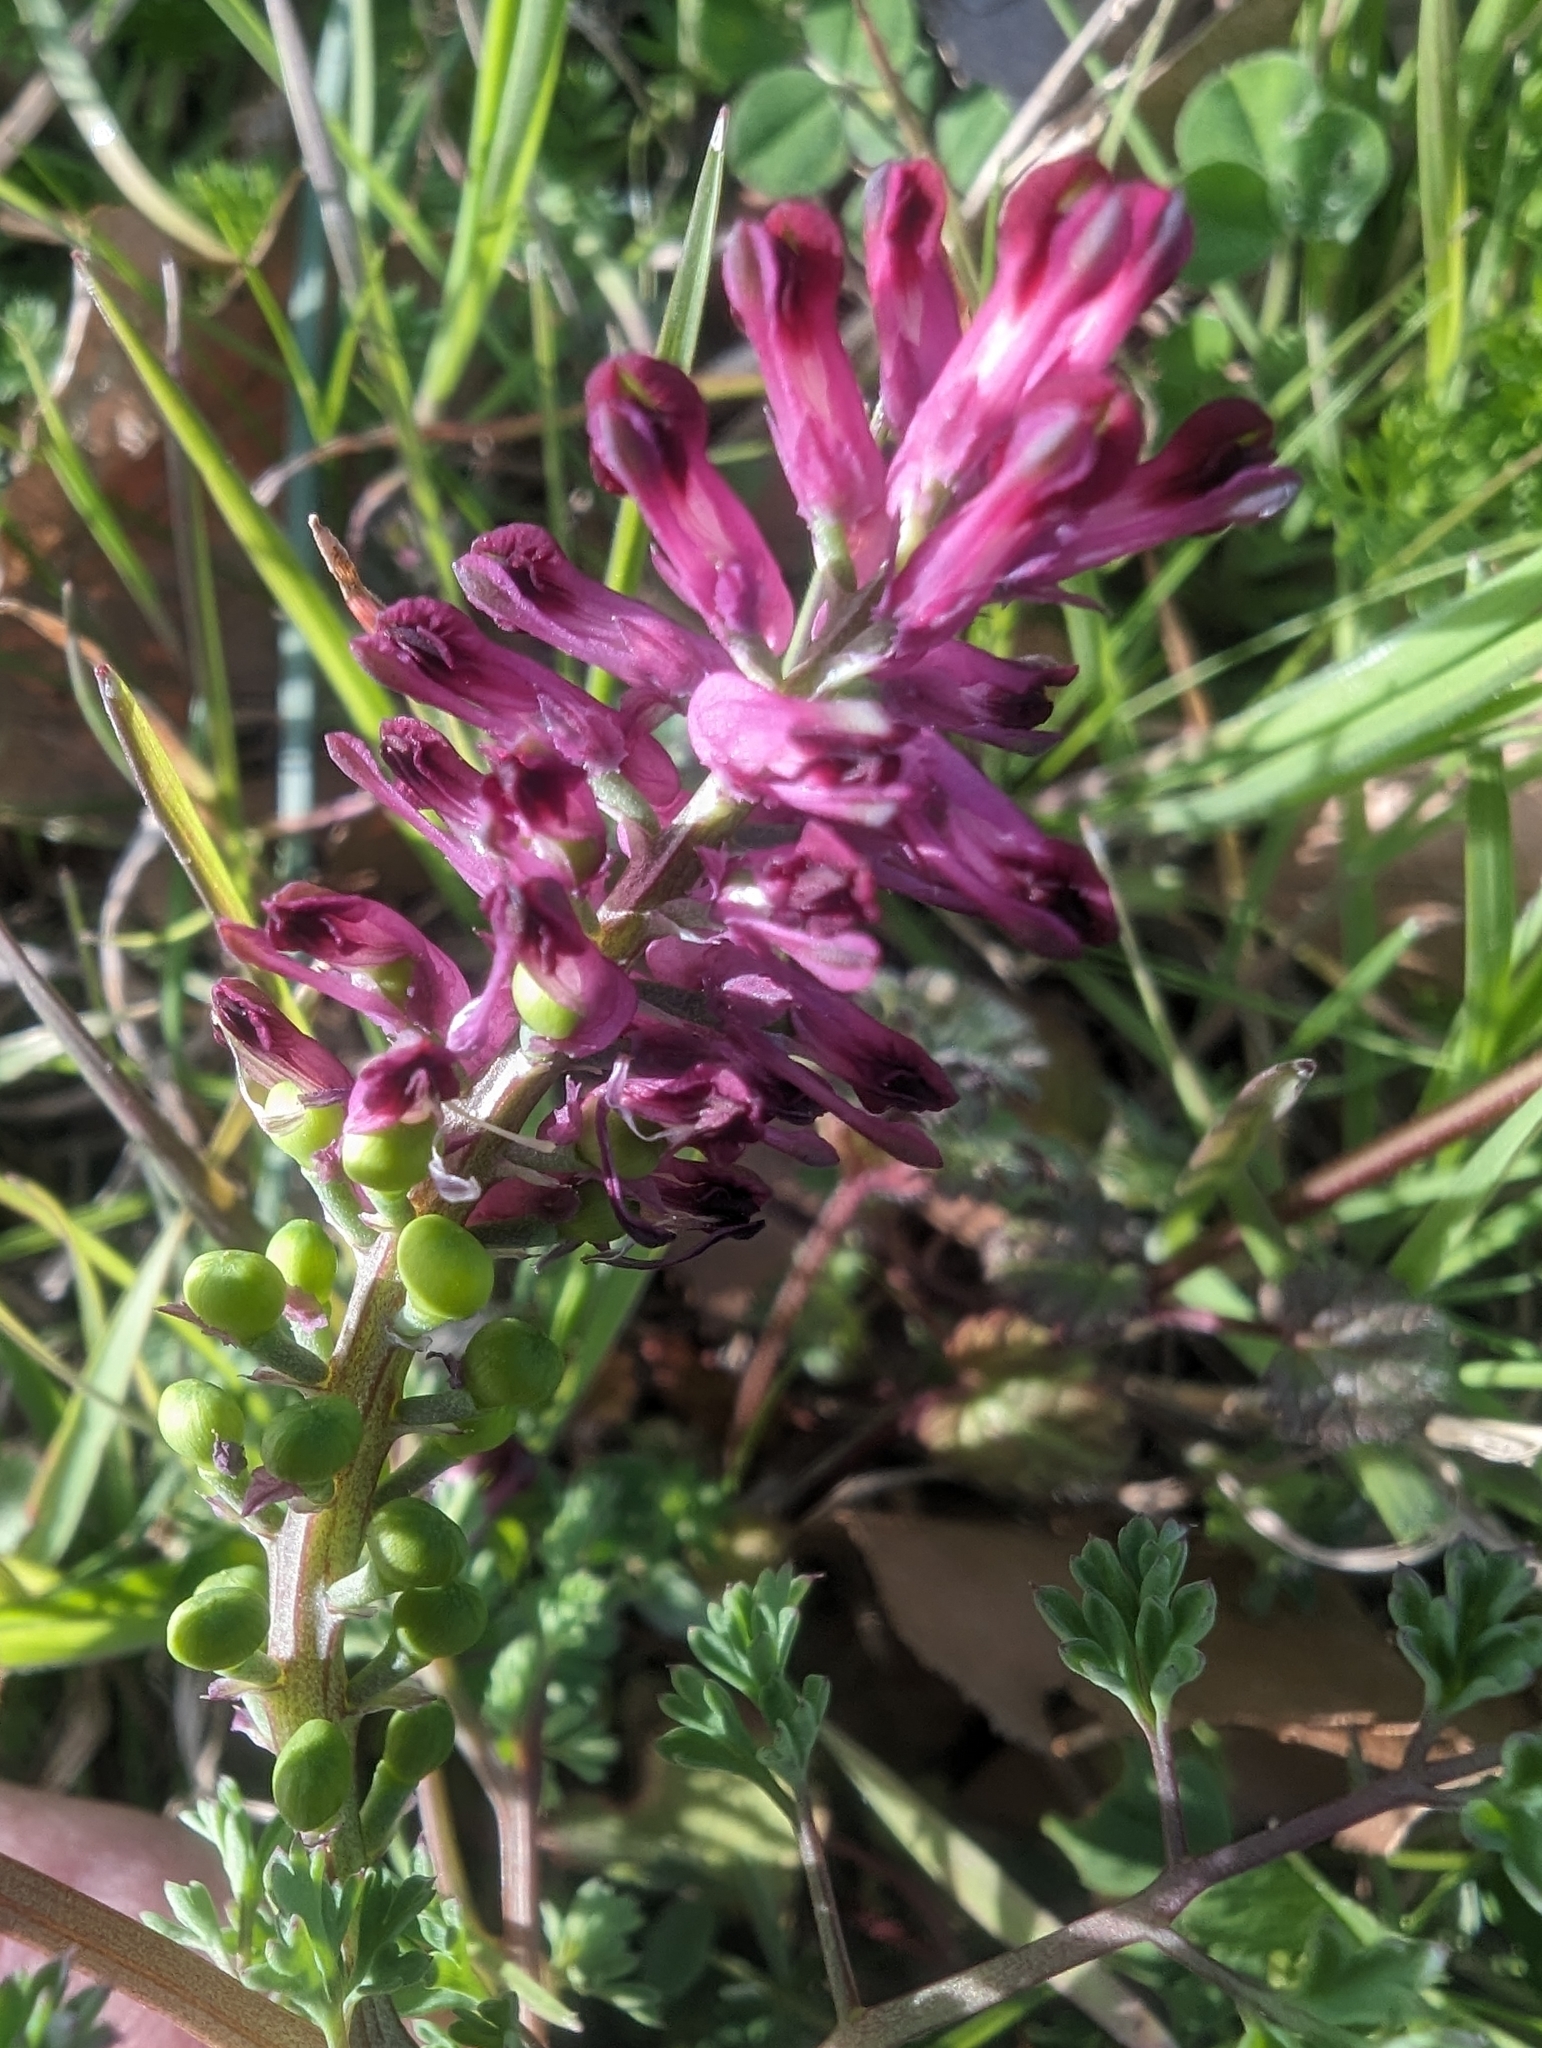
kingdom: Plantae
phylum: Tracheophyta
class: Magnoliopsida
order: Ranunculales
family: Papaveraceae
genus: Fumaria
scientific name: Fumaria officinalis
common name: Common fumitory
